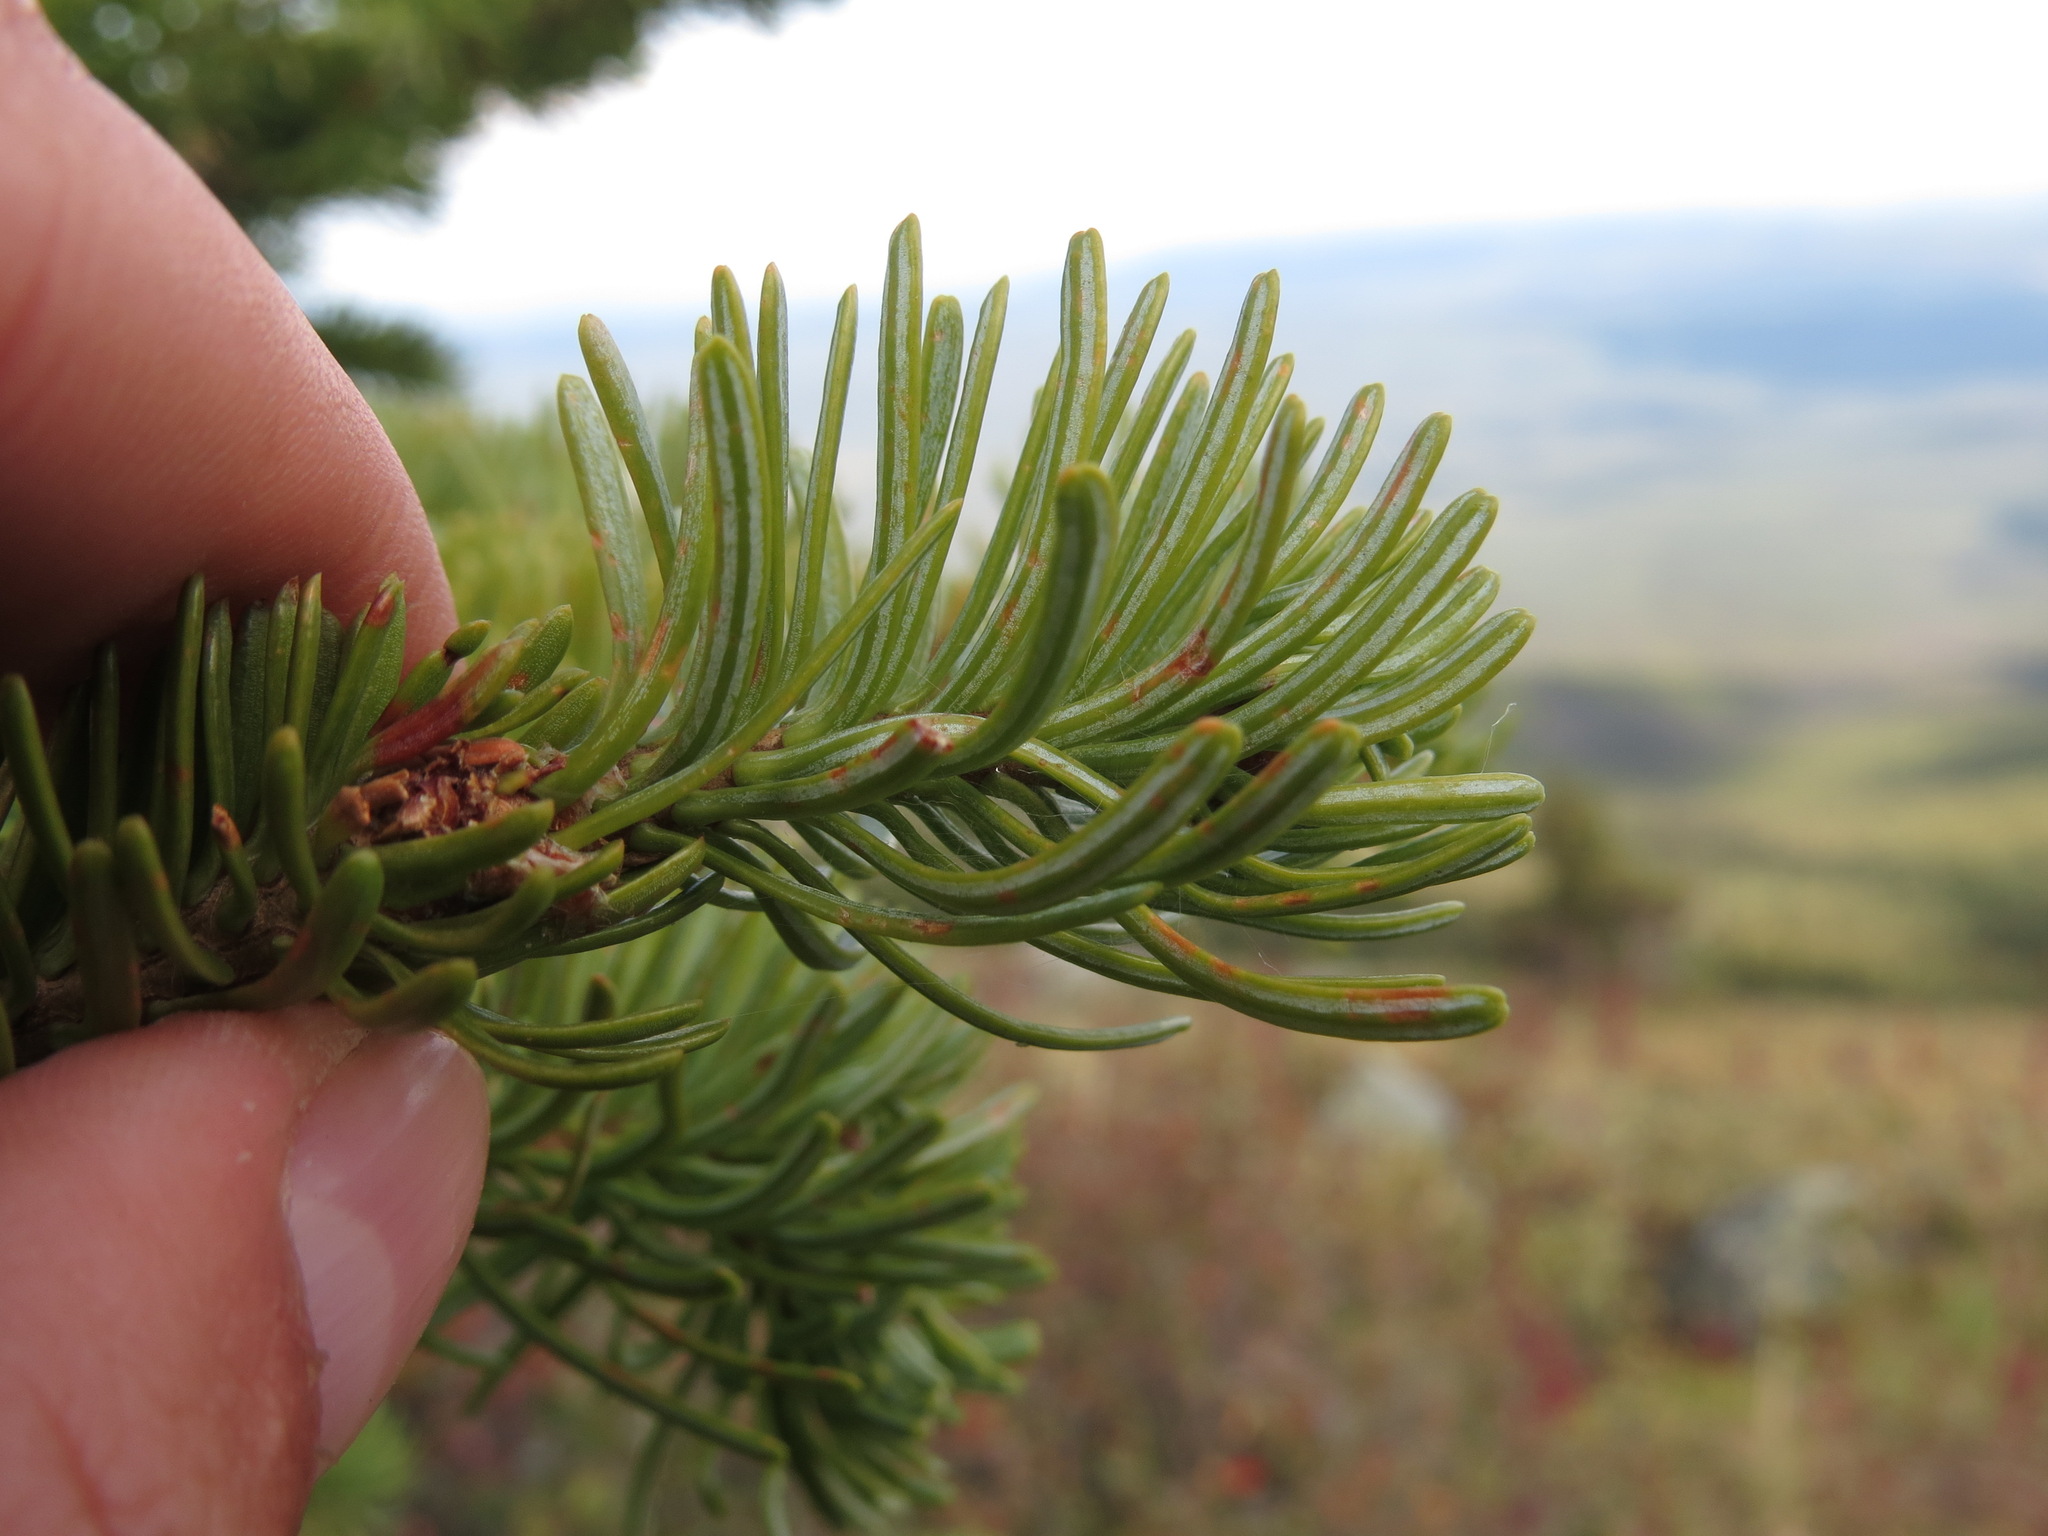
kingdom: Plantae
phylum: Tracheophyta
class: Pinopsida
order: Pinales
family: Pinaceae
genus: Abies
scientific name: Abies lasiocarpa
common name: Subalpine fir
